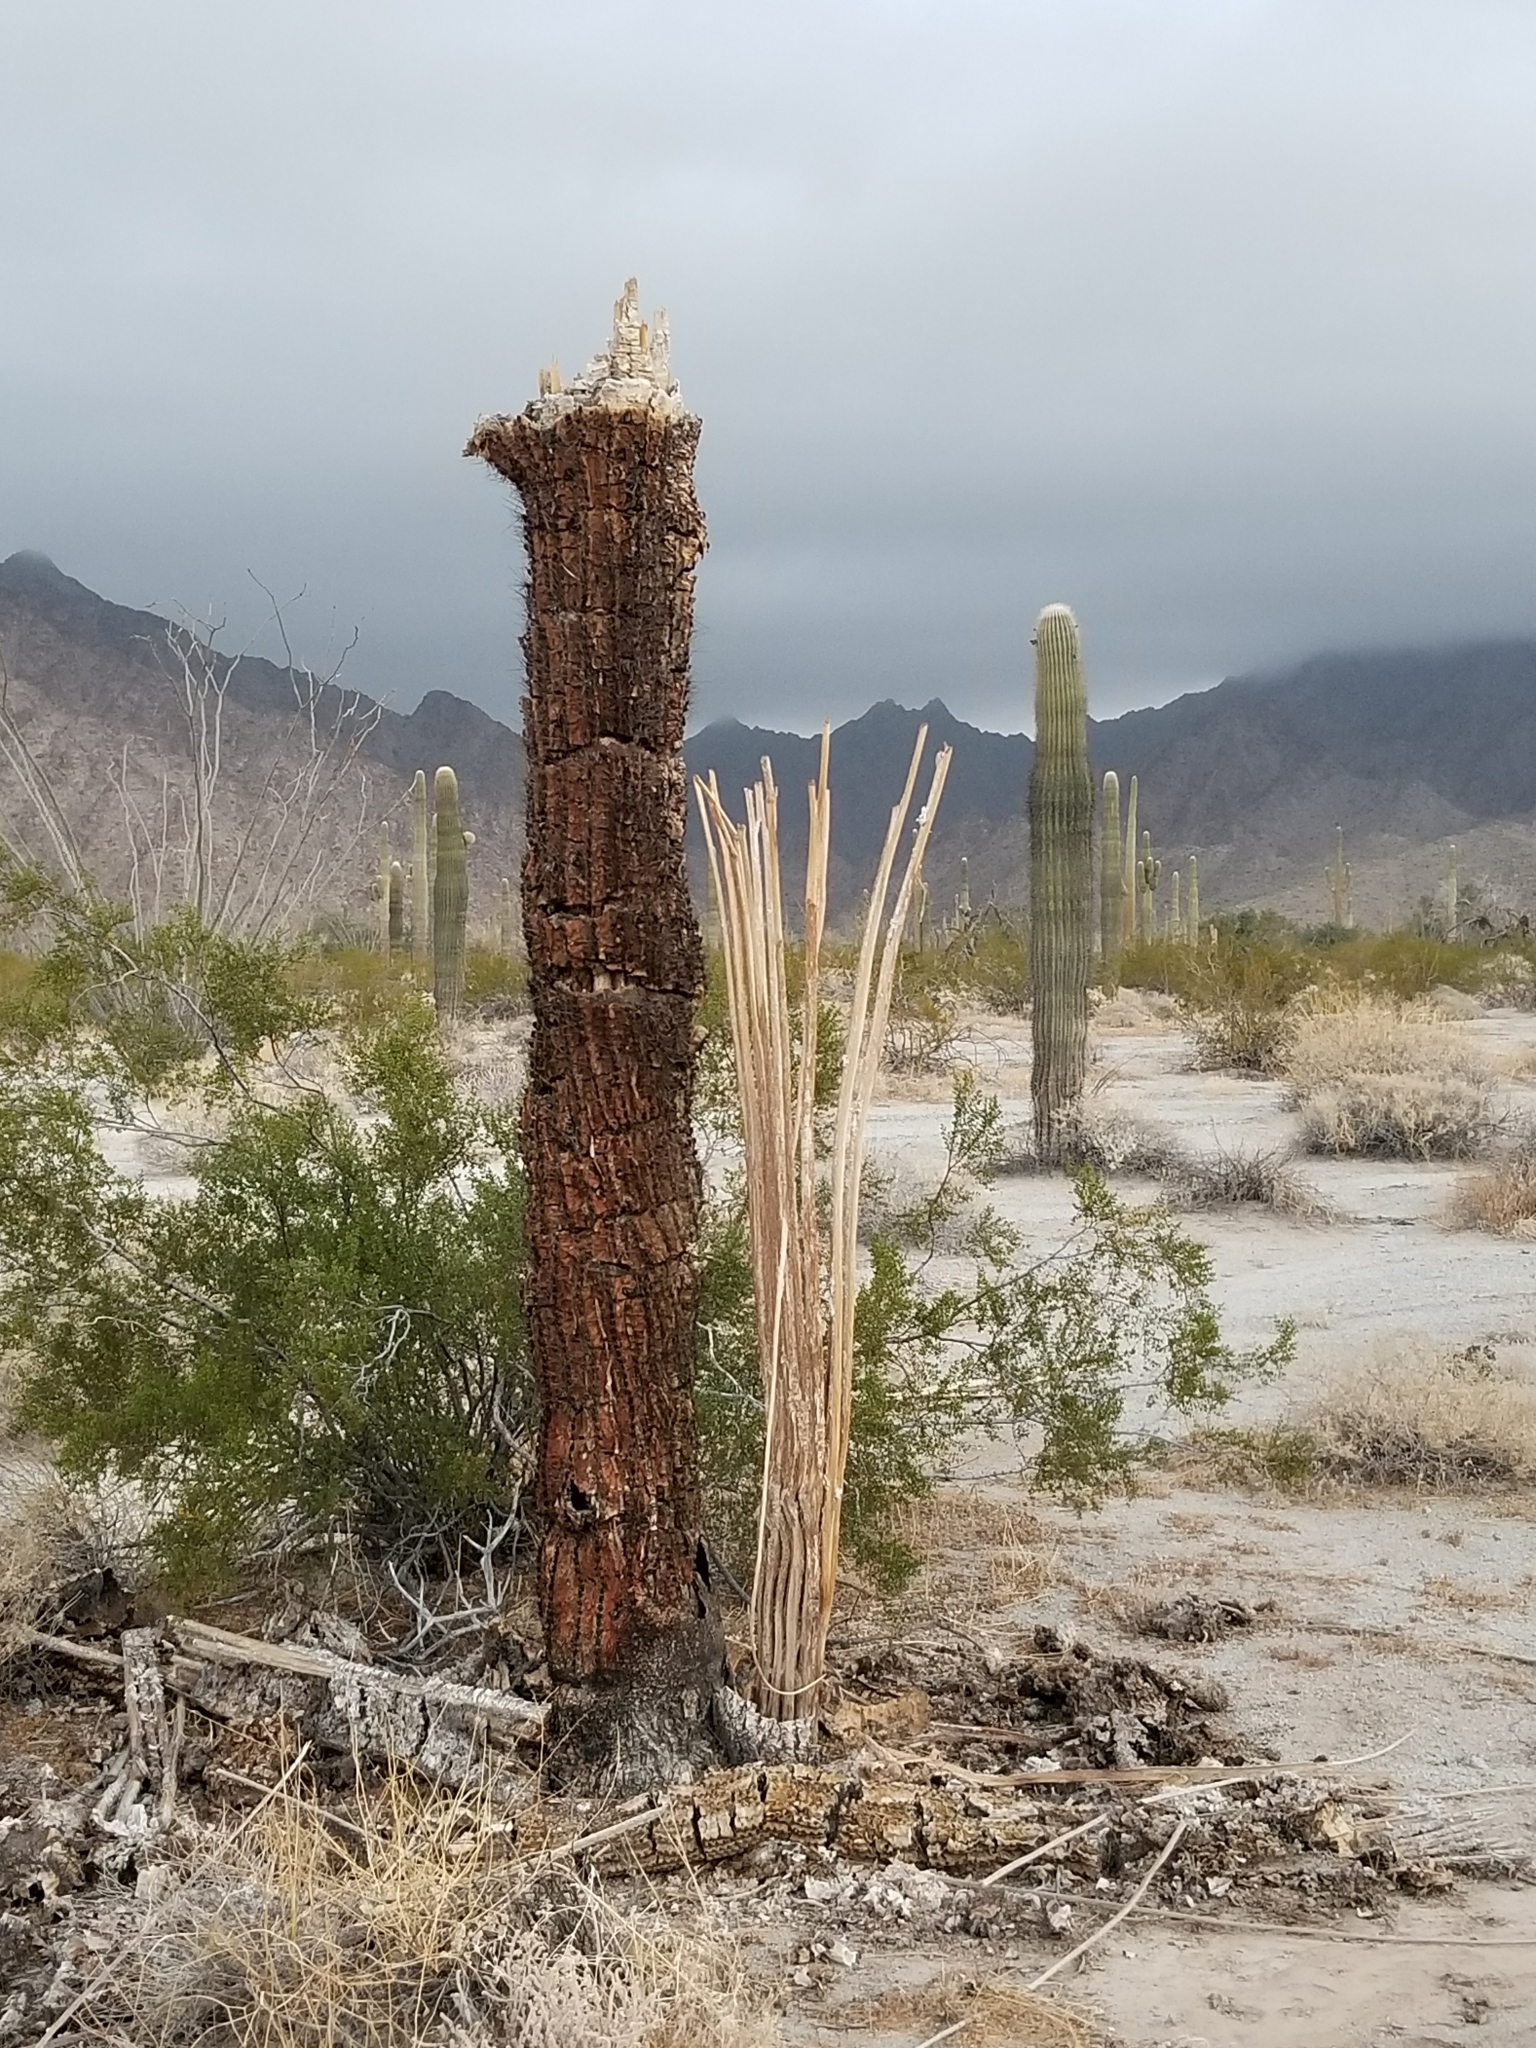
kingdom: Plantae
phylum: Tracheophyta
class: Magnoliopsida
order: Caryophyllales
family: Cactaceae
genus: Carnegiea
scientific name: Carnegiea gigantea
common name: Saguaro
